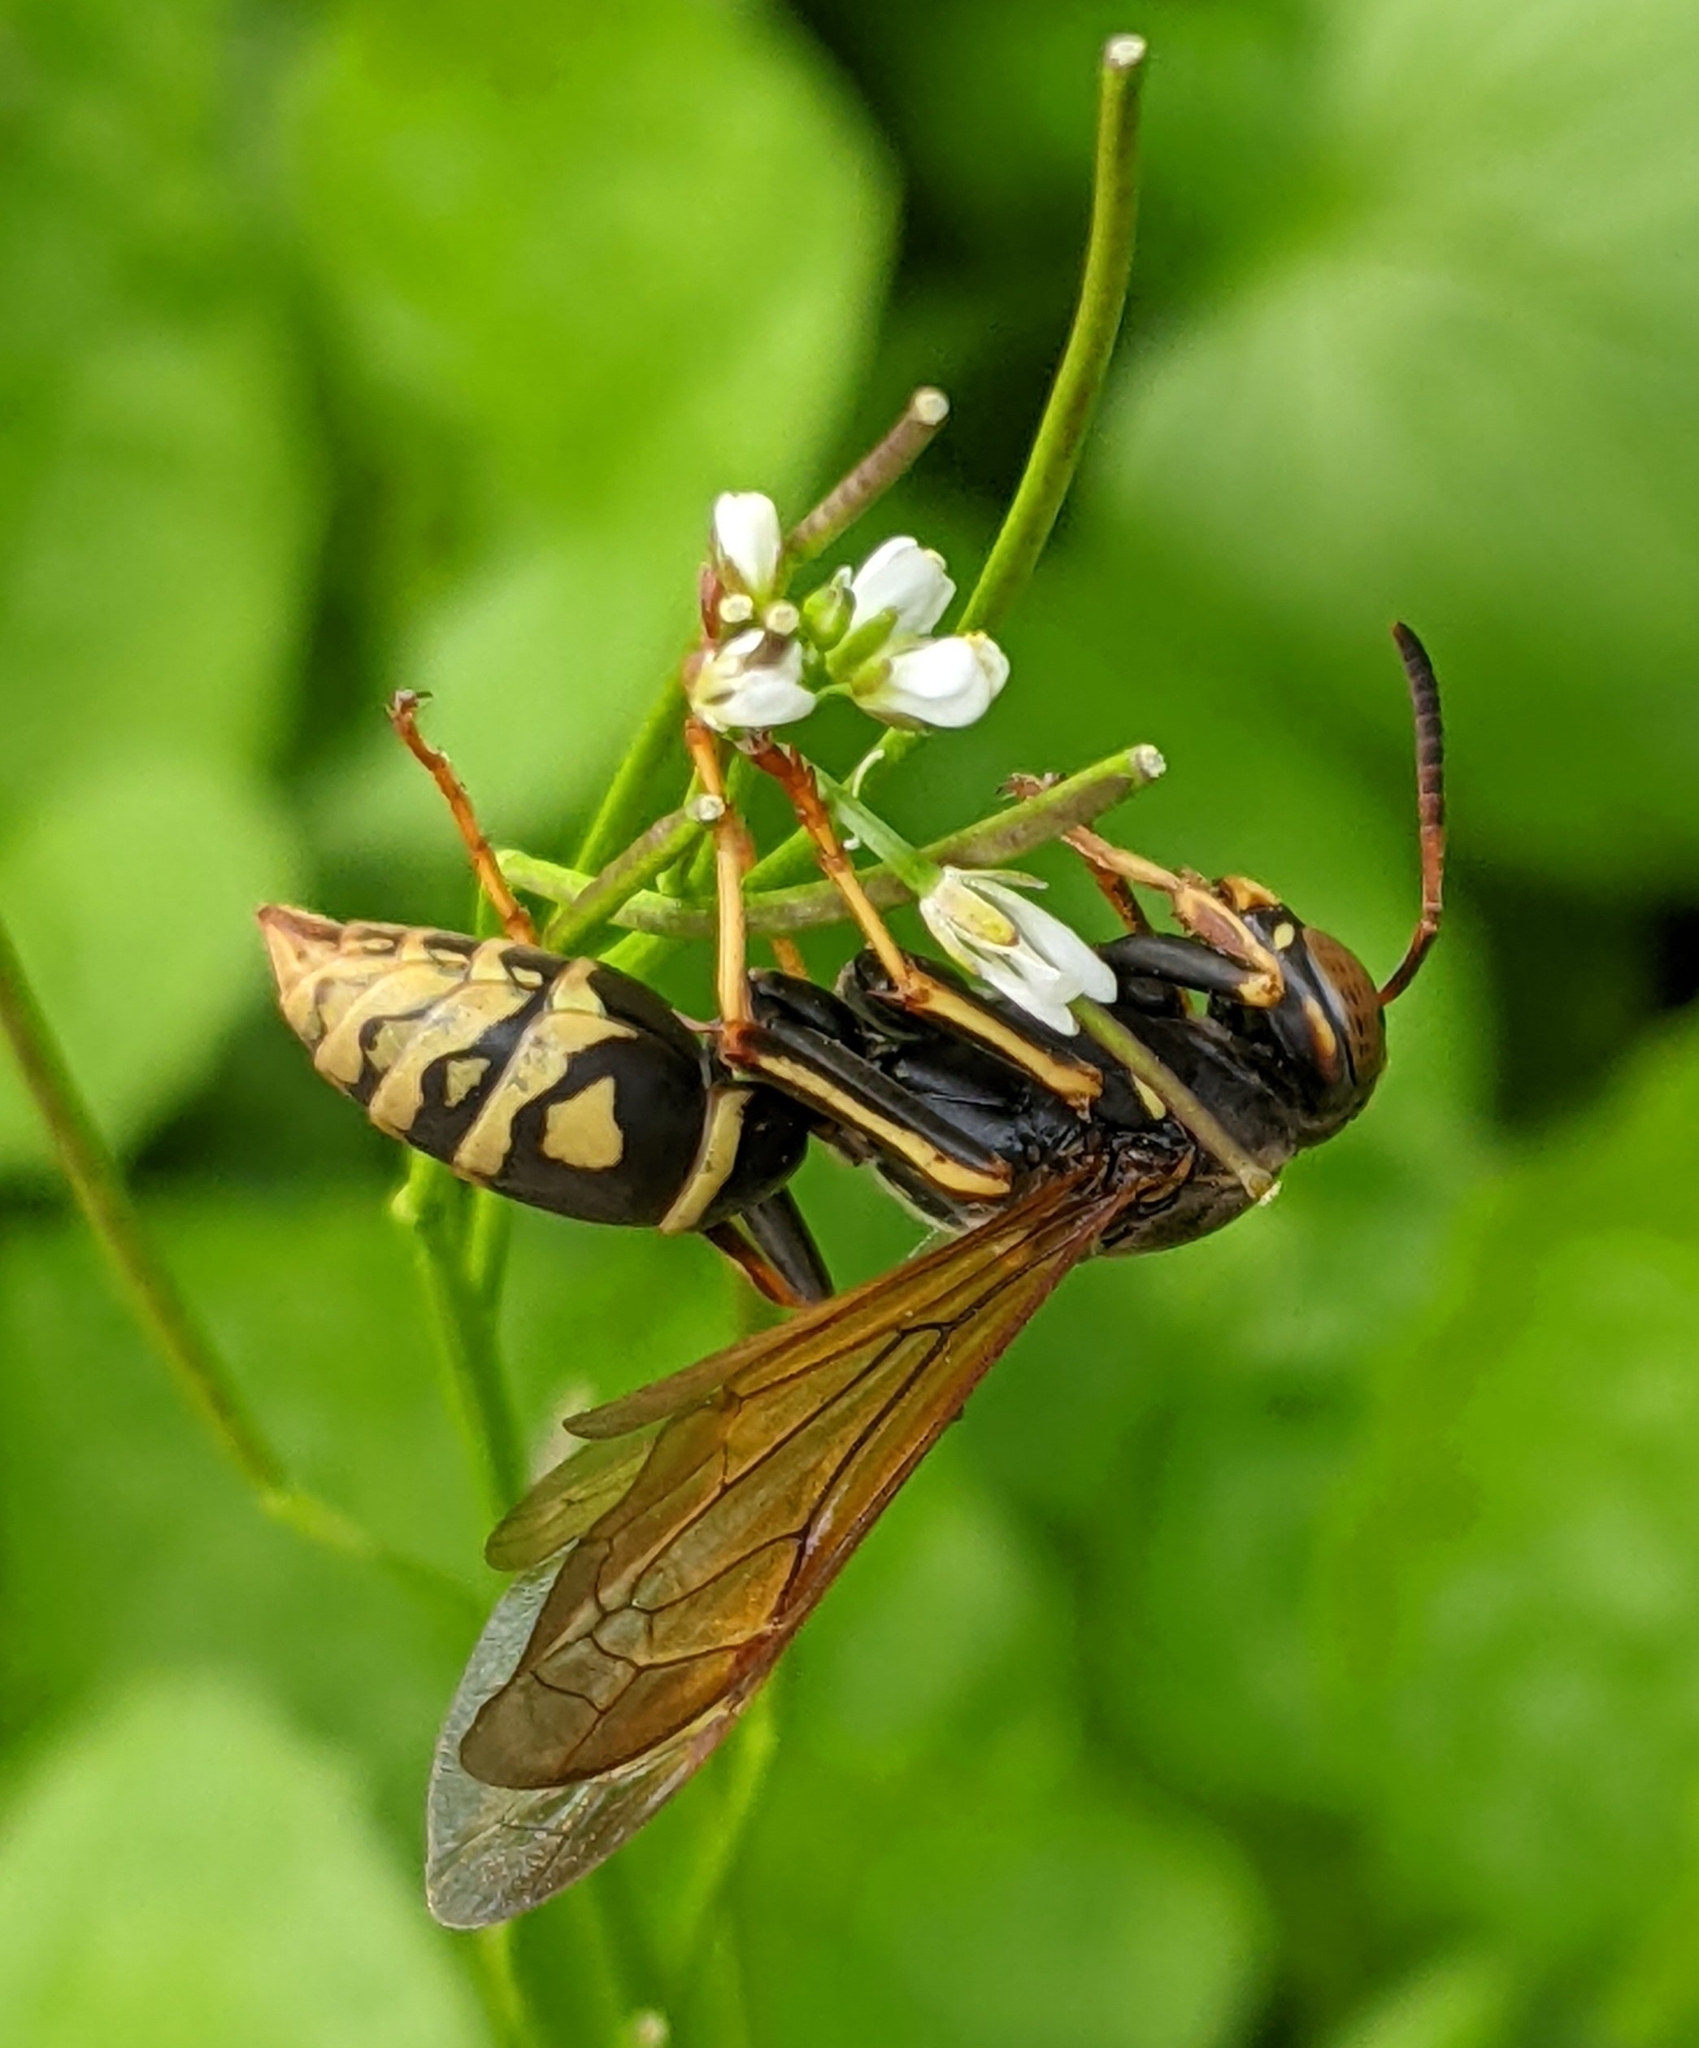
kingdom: Animalia
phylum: Arthropoda
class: Insecta
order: Hymenoptera
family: Eumenidae
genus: Polistes
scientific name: Polistes aurifer
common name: Paper wasp
